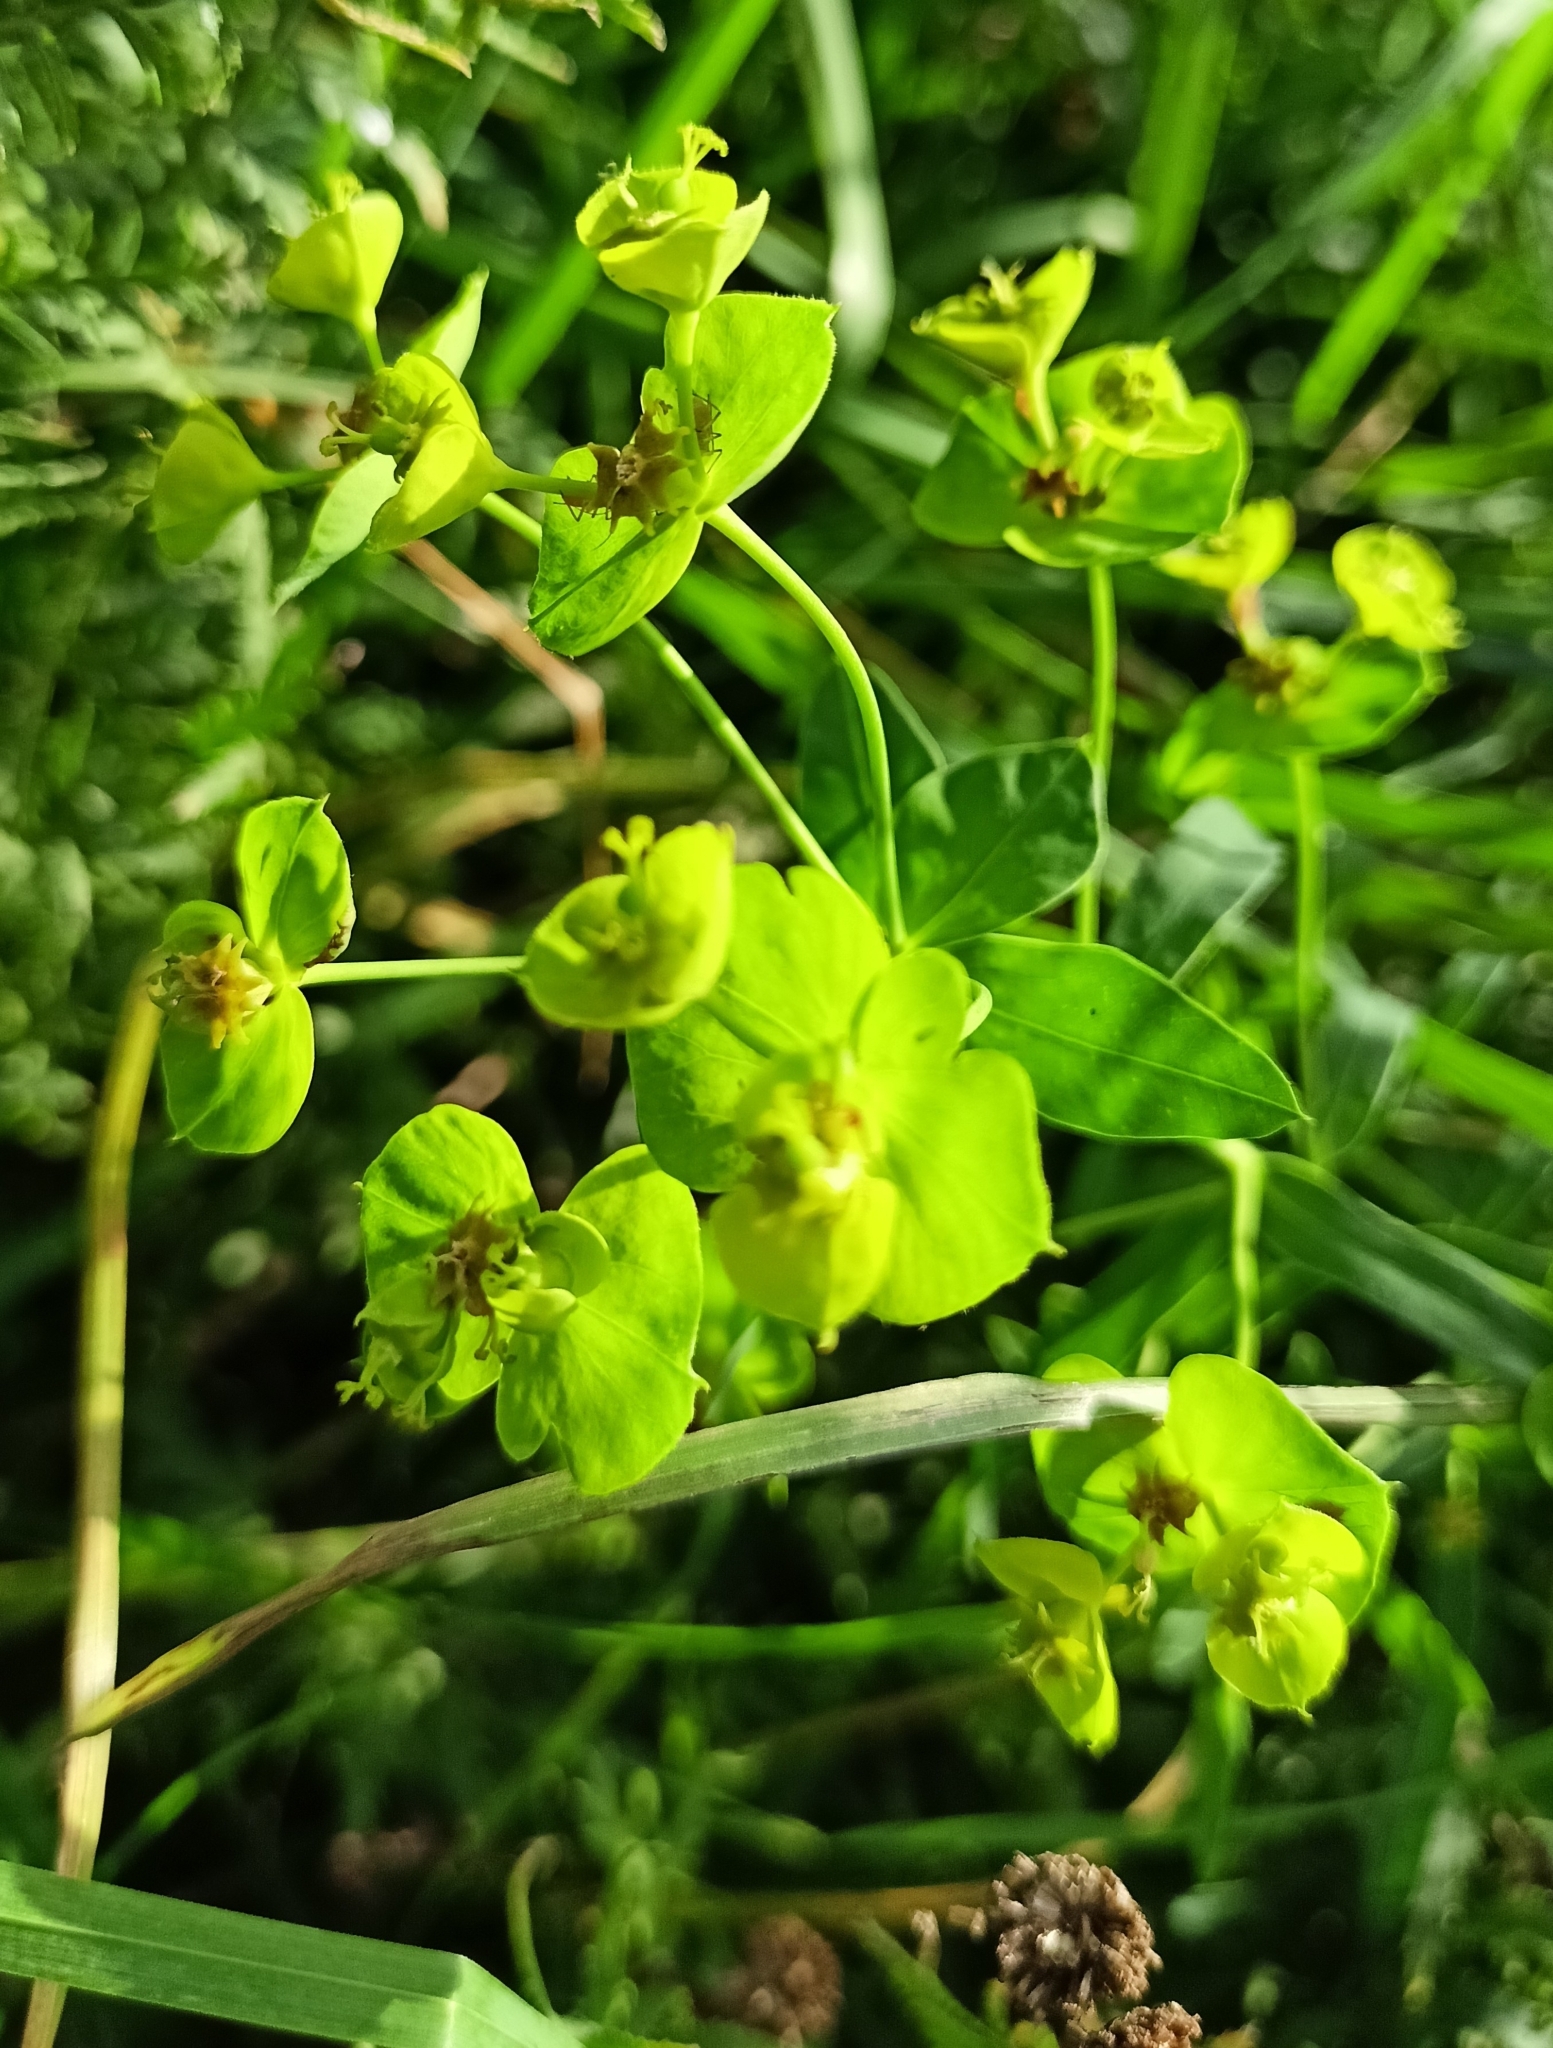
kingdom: Plantae
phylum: Tracheophyta
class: Magnoliopsida
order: Malpighiales
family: Euphorbiaceae
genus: Euphorbia
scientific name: Euphorbia virgata
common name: Leafy spurge
